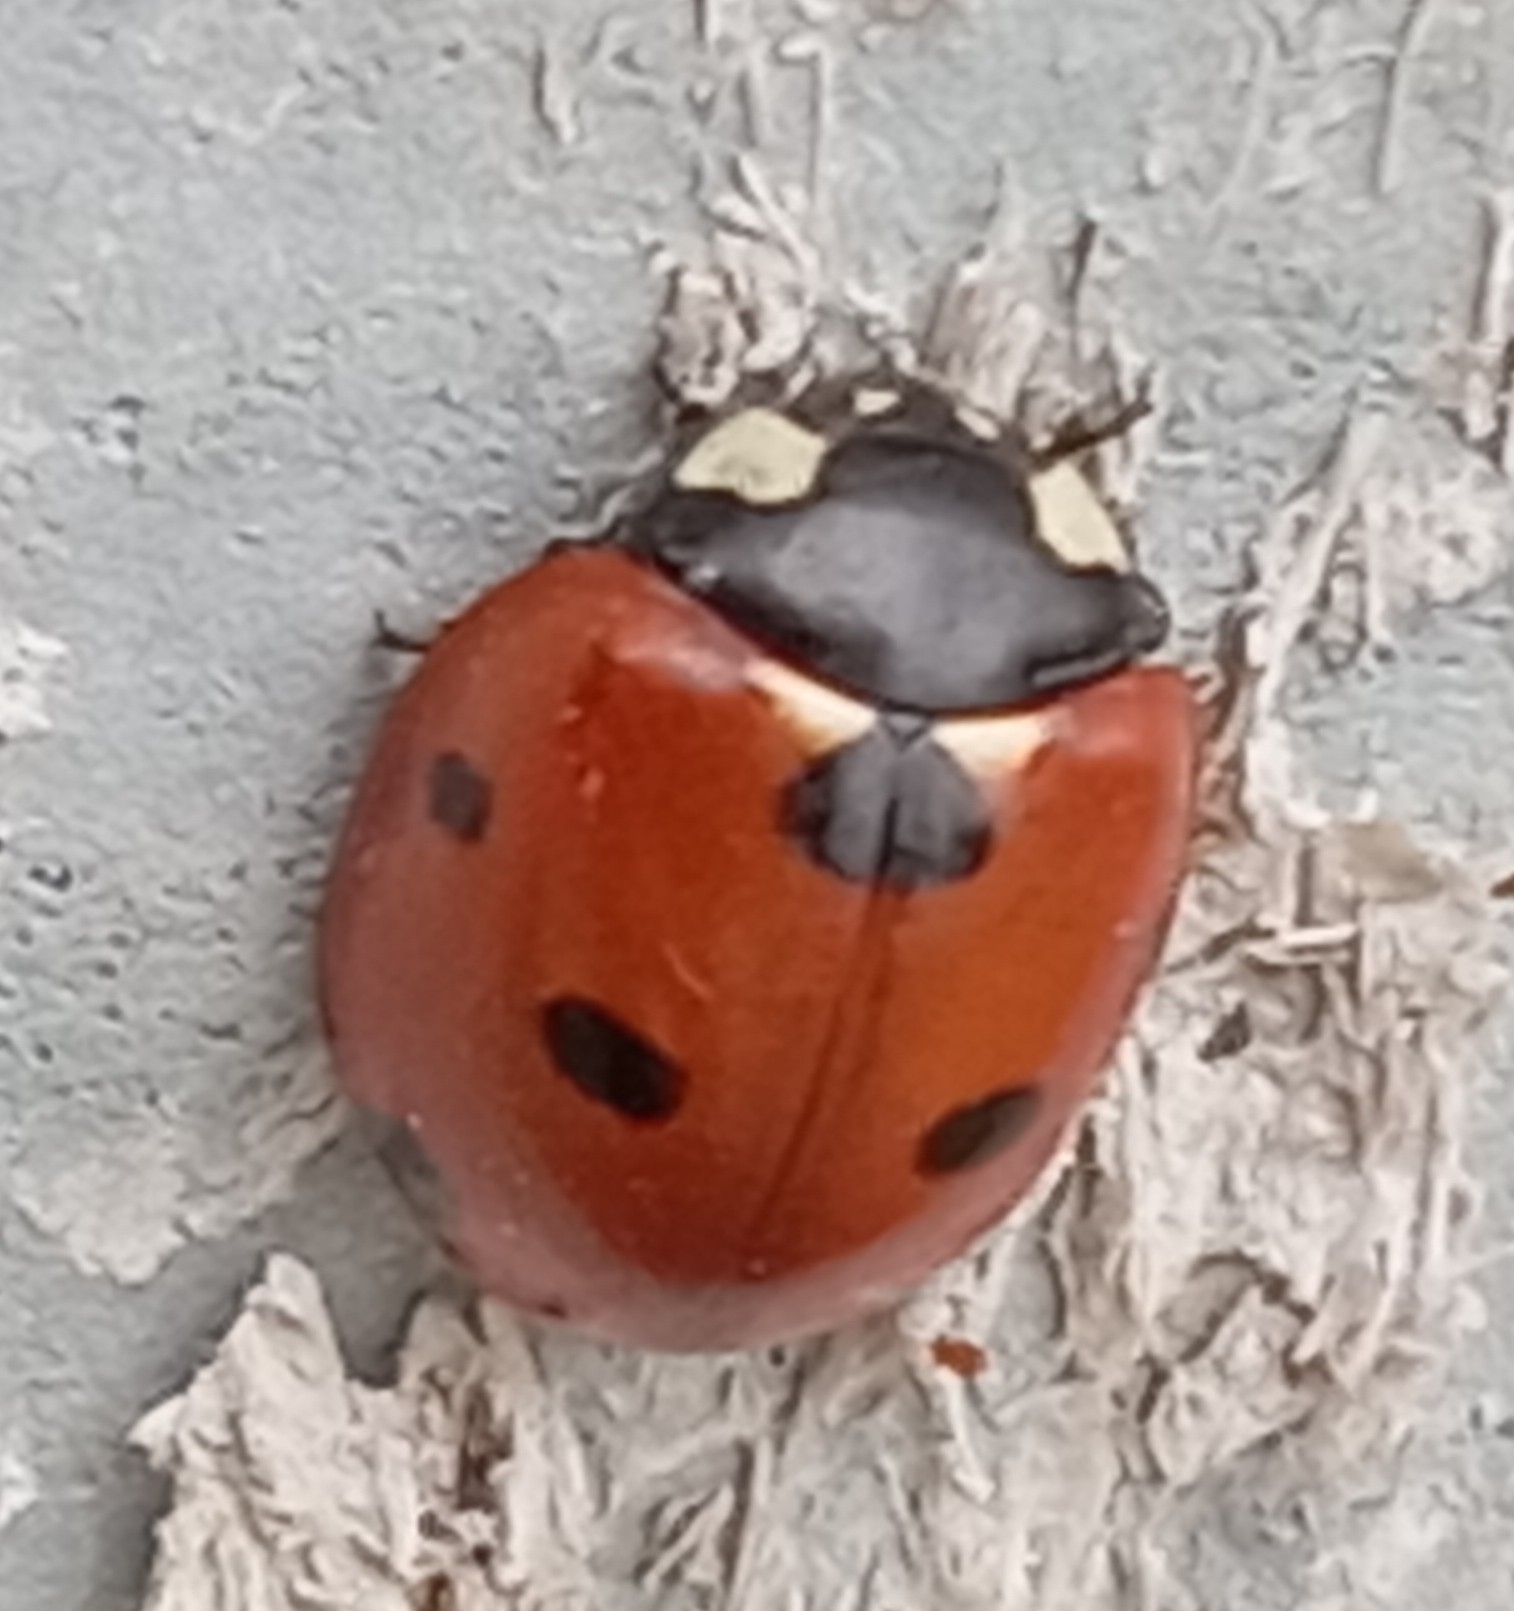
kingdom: Animalia
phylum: Arthropoda
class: Insecta
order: Coleoptera
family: Coccinellidae
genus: Coccinella
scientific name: Coccinella septempunctata
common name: Sevenspotted lady beetle
